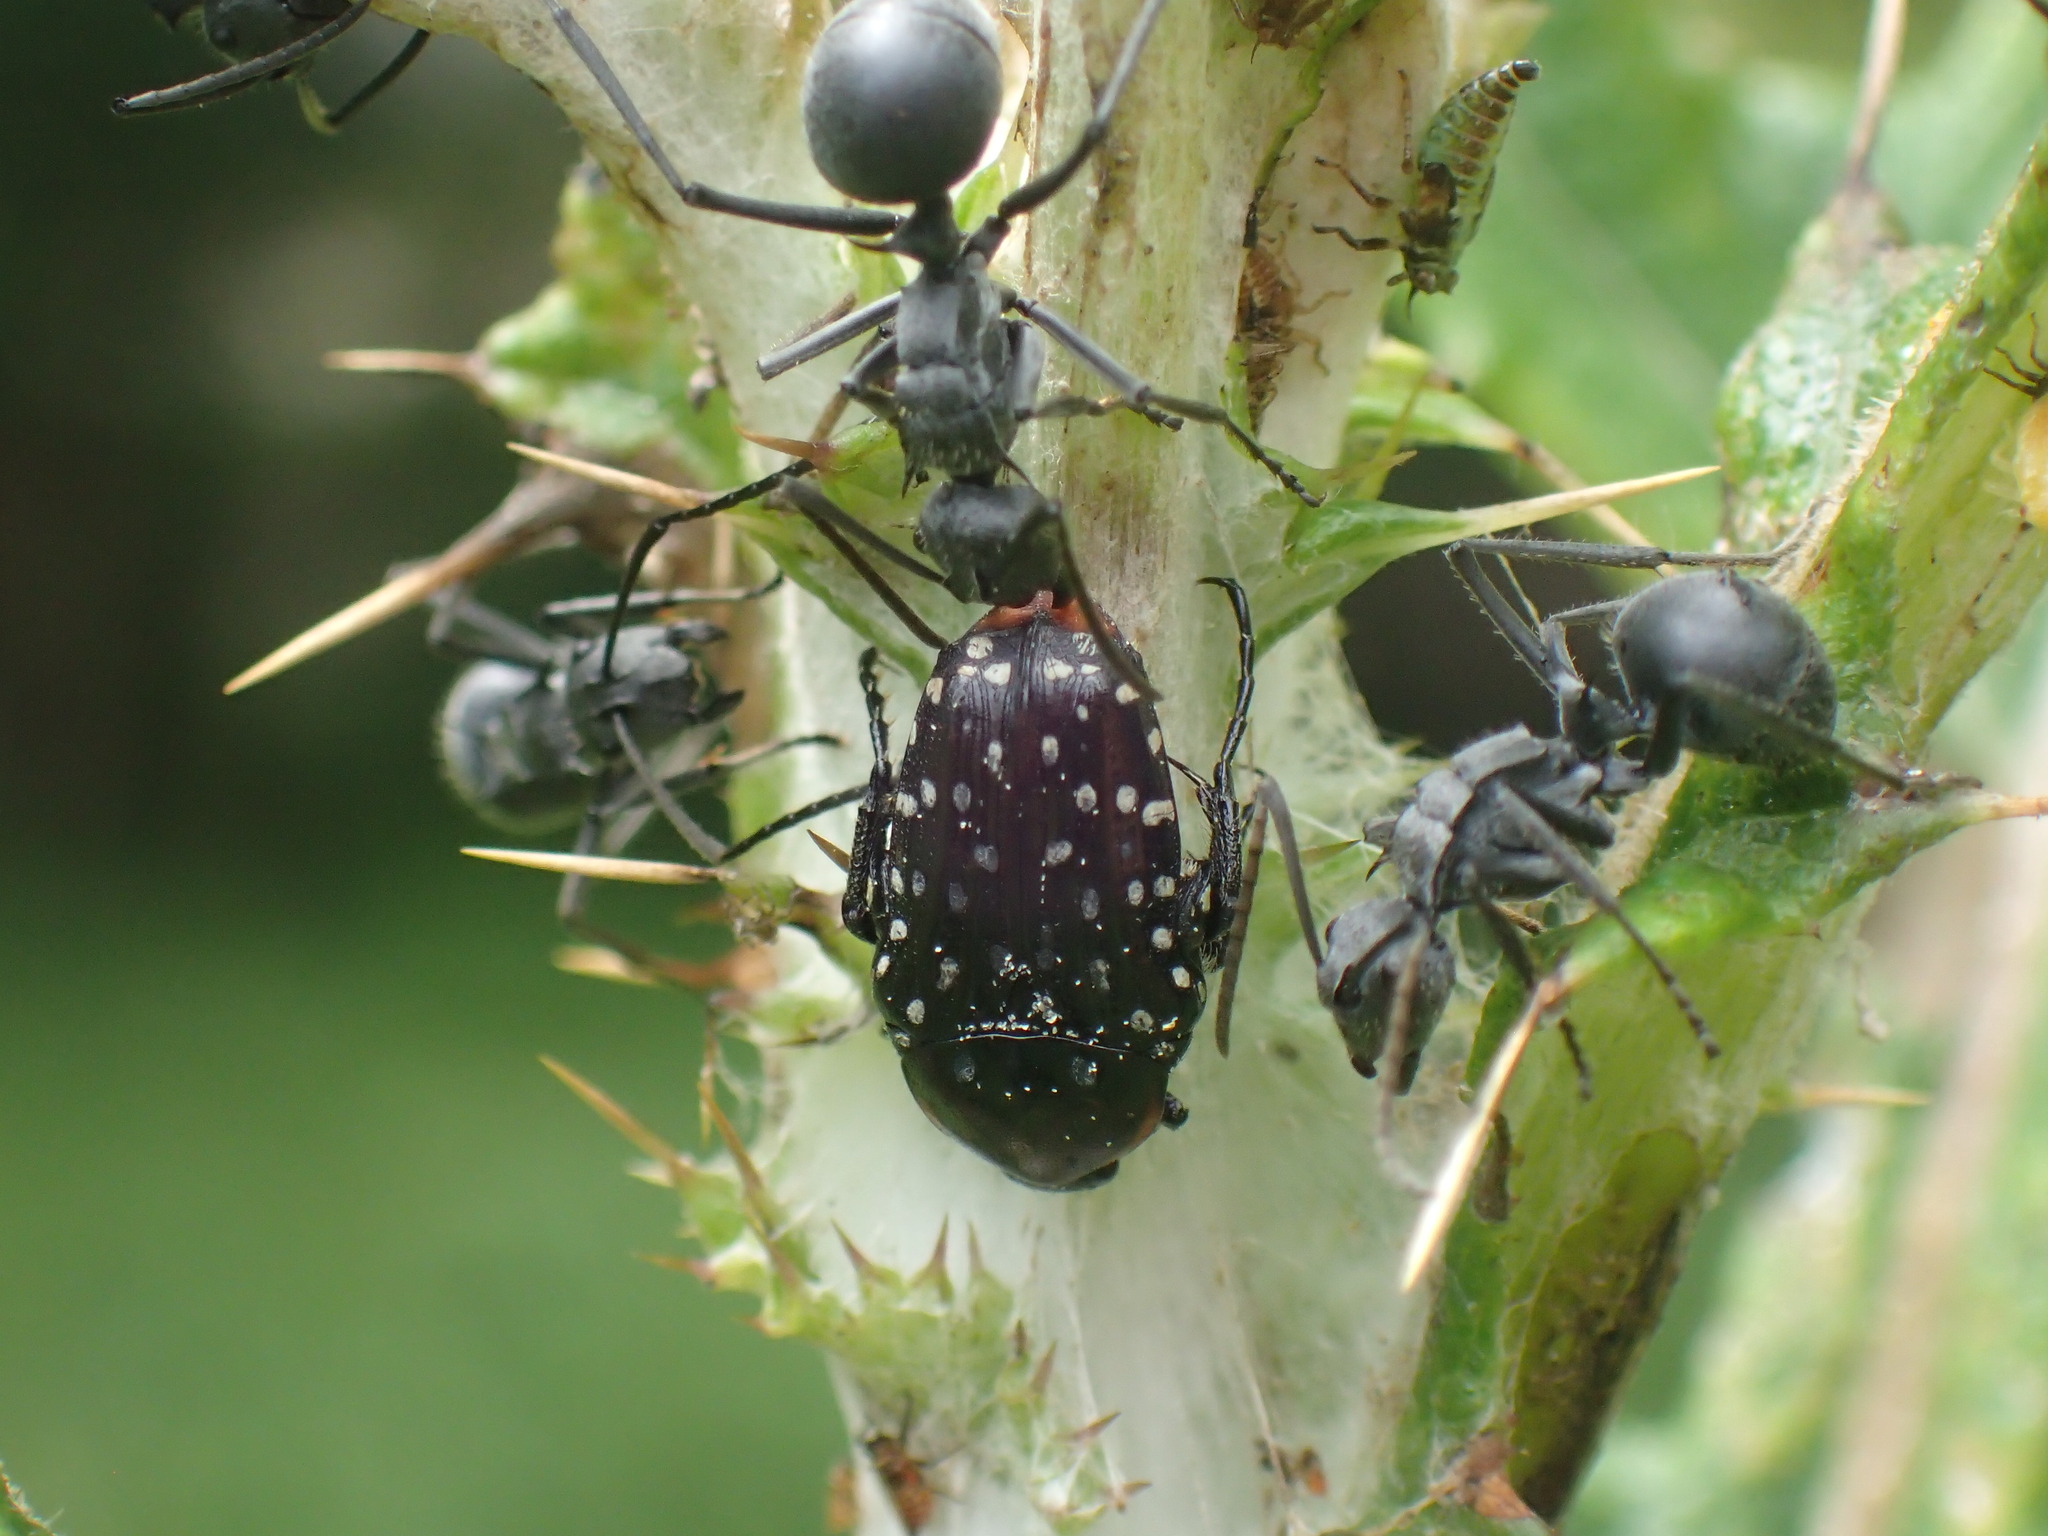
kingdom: Animalia
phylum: Arthropoda
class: Insecta
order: Coleoptera
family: Scarabaeidae
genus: Oxythyrea
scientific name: Oxythyrea
